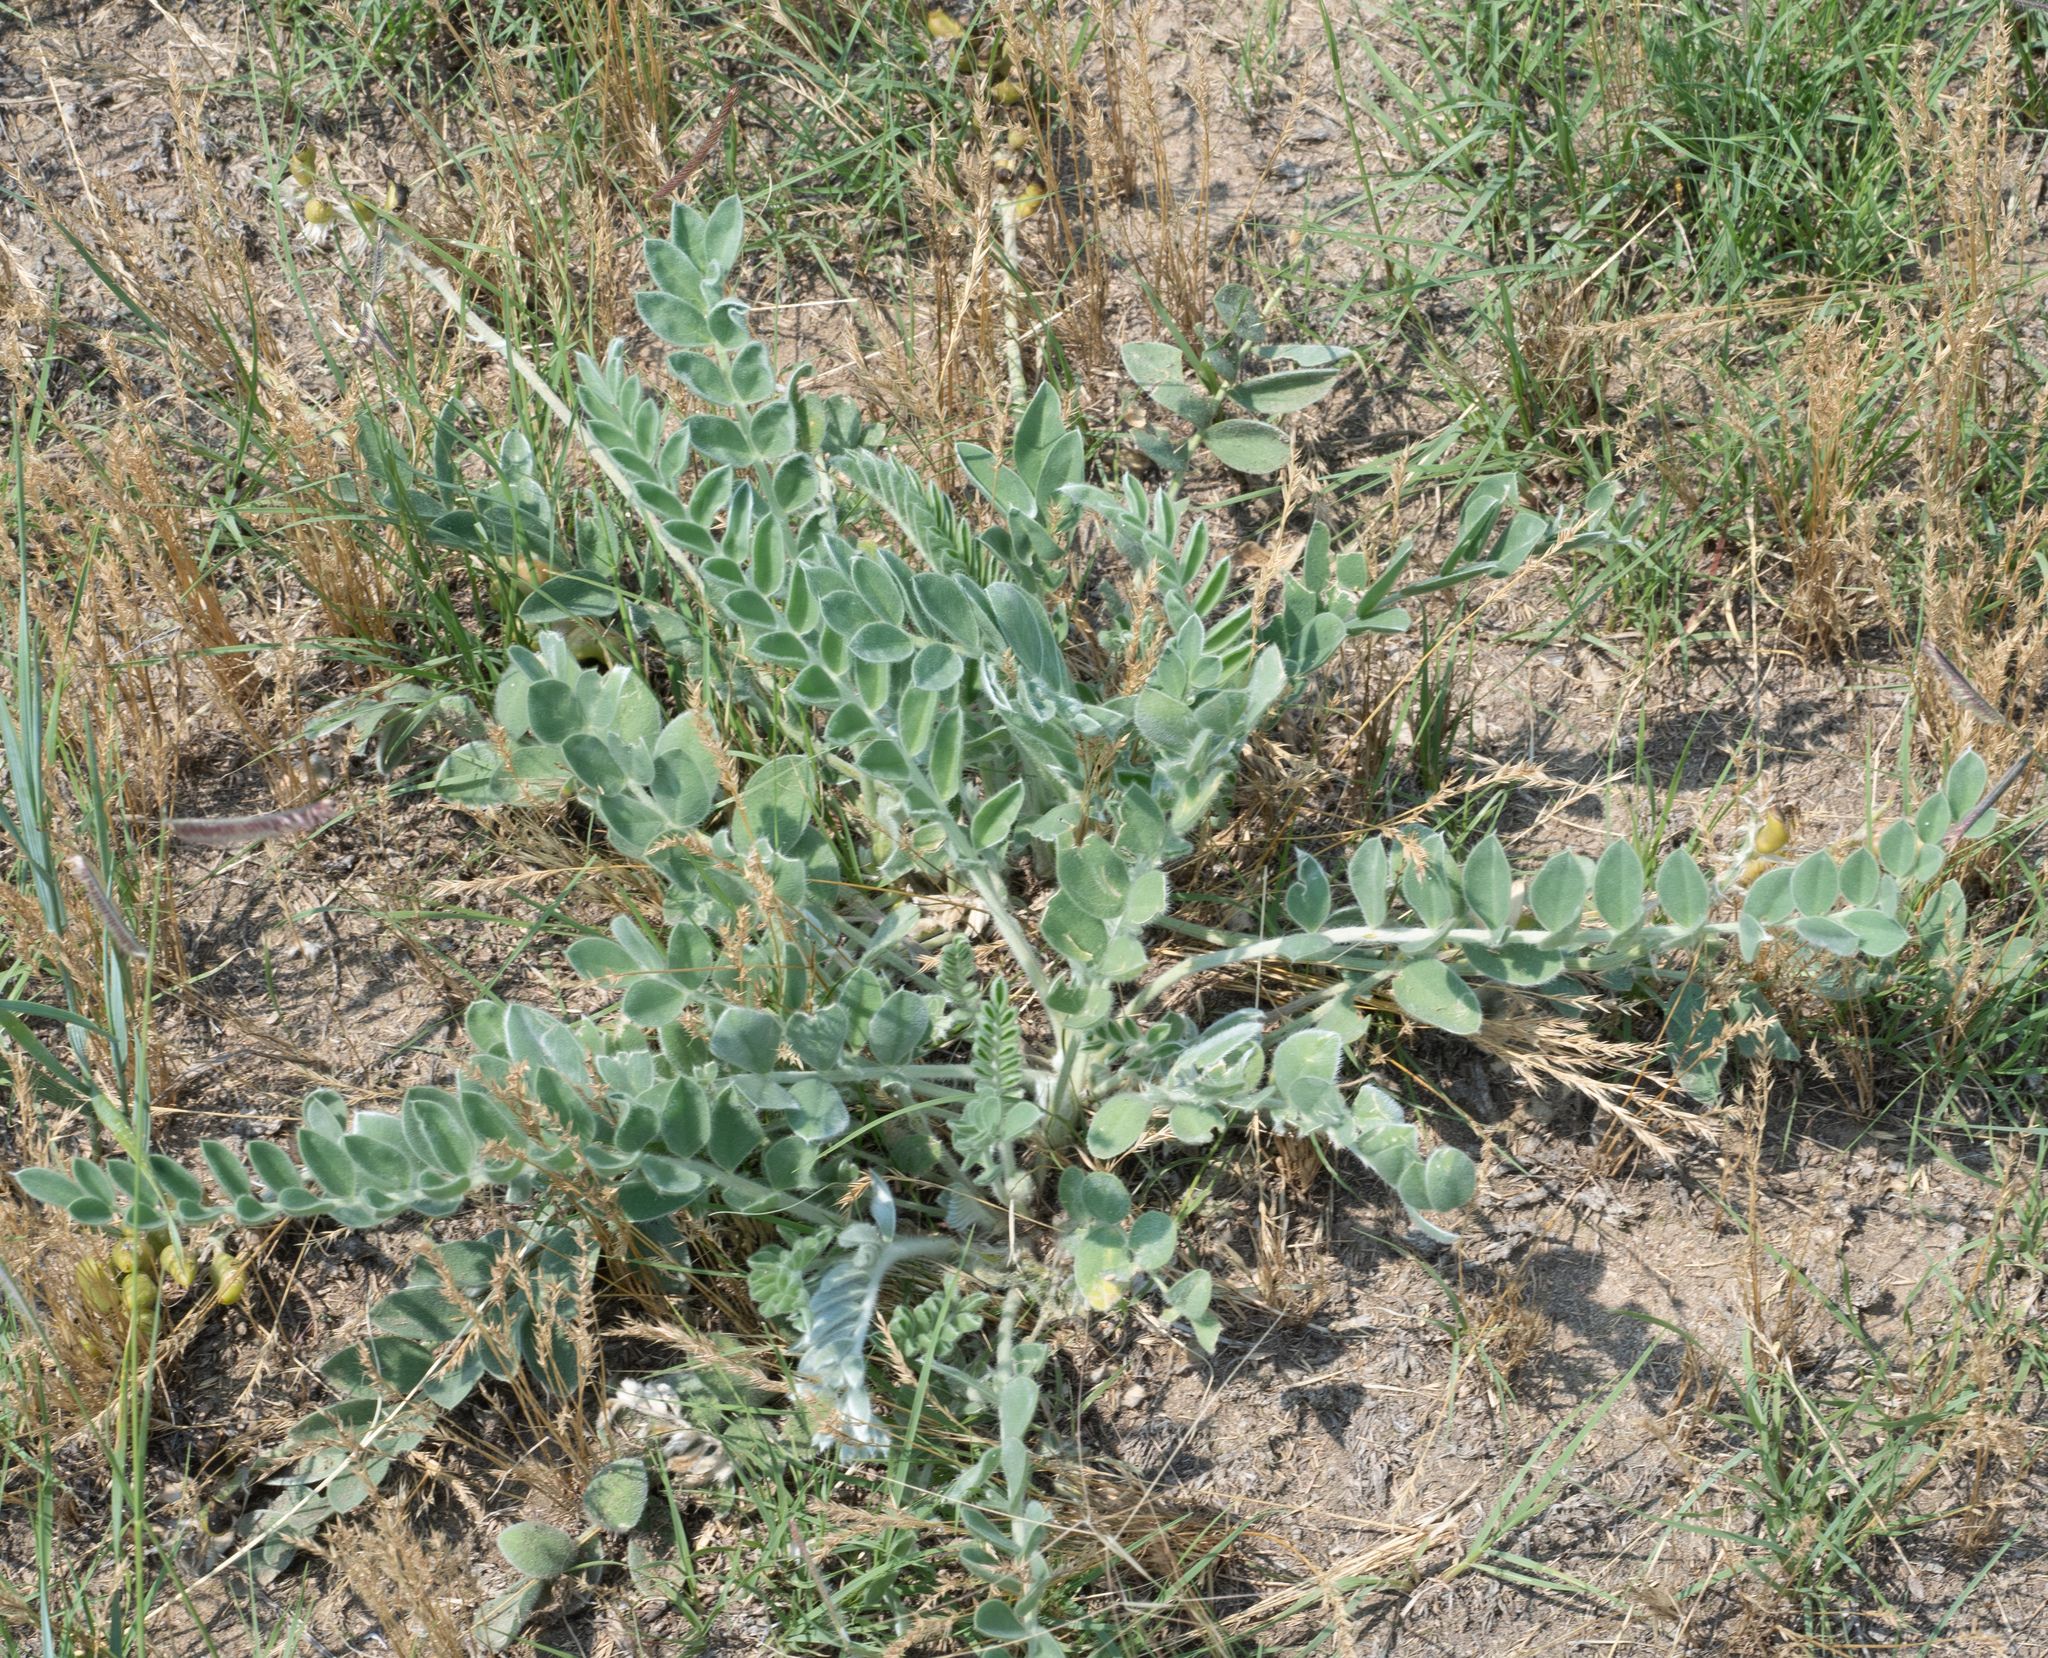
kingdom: Plantae
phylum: Tracheophyta
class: Magnoliopsida
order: Fabales
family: Fabaceae
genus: Astragalus
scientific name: Astragalus mollissimus
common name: Woolly locoweed
